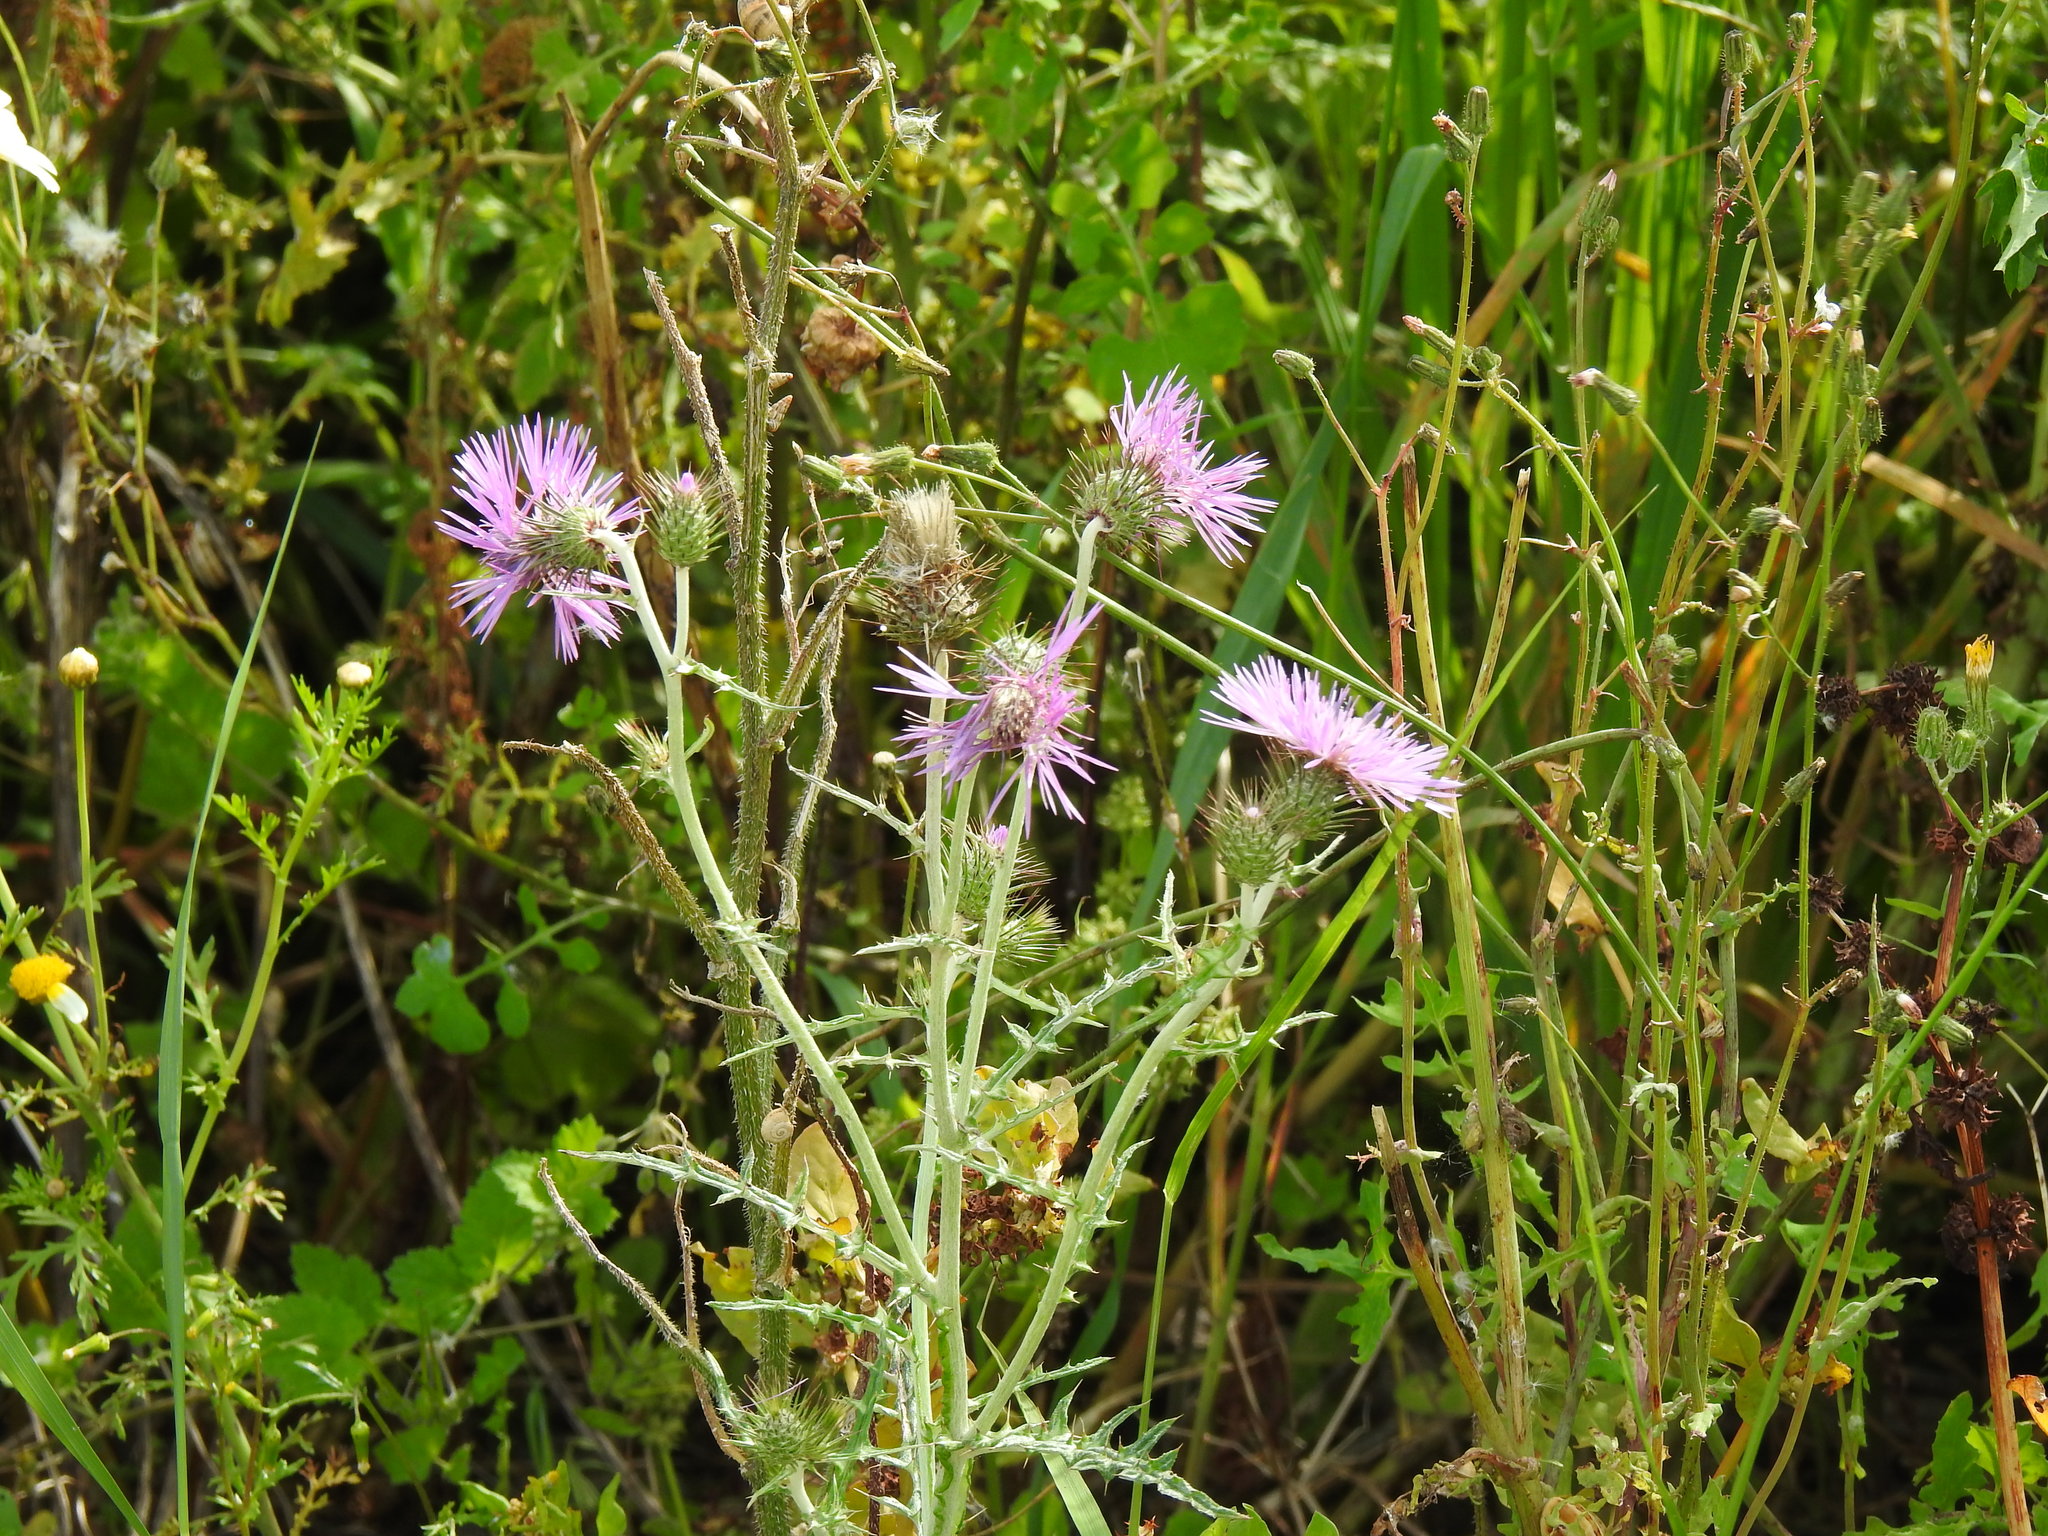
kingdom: Plantae
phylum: Tracheophyta
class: Magnoliopsida
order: Asterales
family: Asteraceae
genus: Galactites
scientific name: Galactites tomentosa
